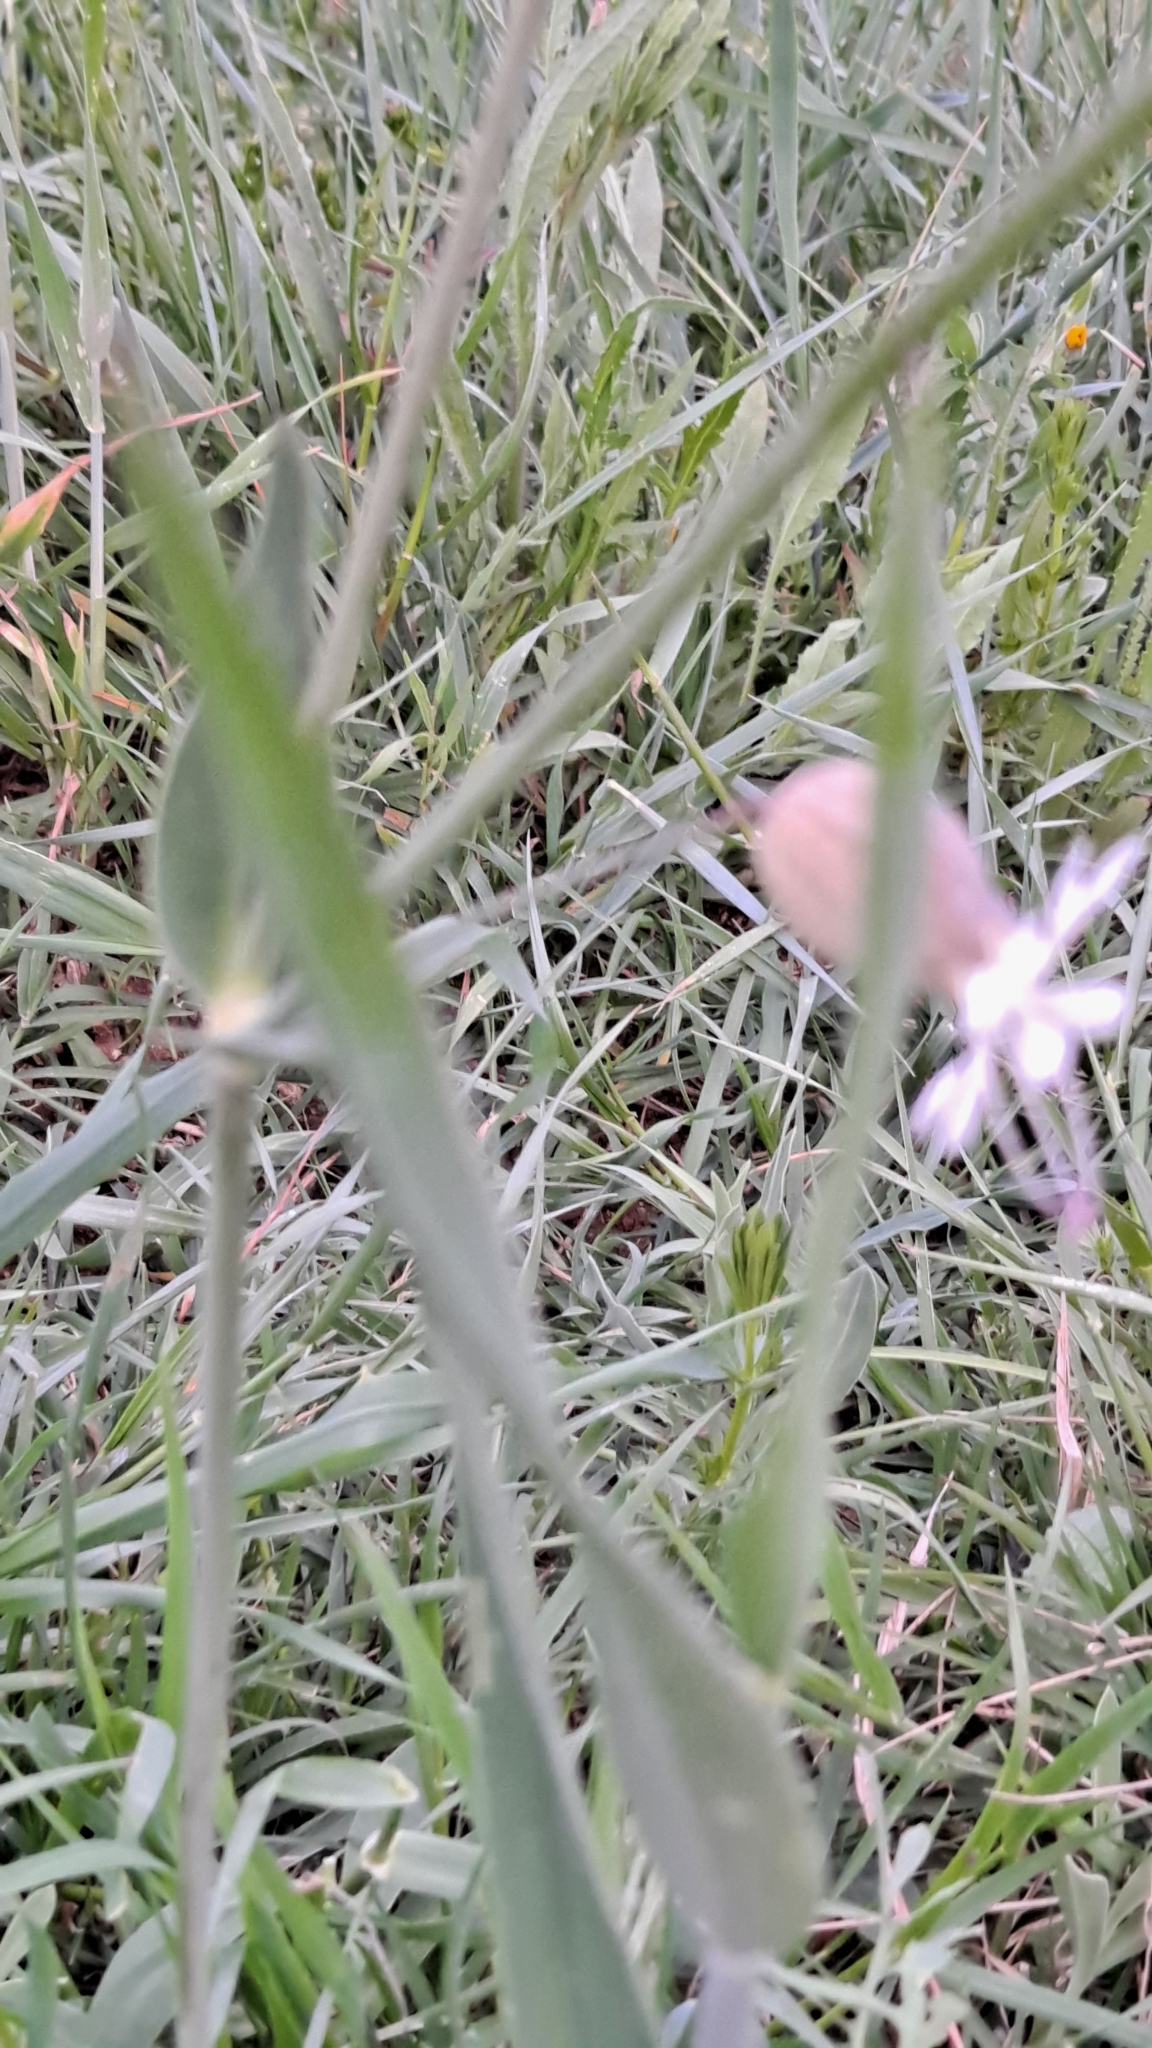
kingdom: Plantae
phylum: Tracheophyta
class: Magnoliopsida
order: Caryophyllales
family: Caryophyllaceae
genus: Silene
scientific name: Silene vulgaris
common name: Bladder campion
